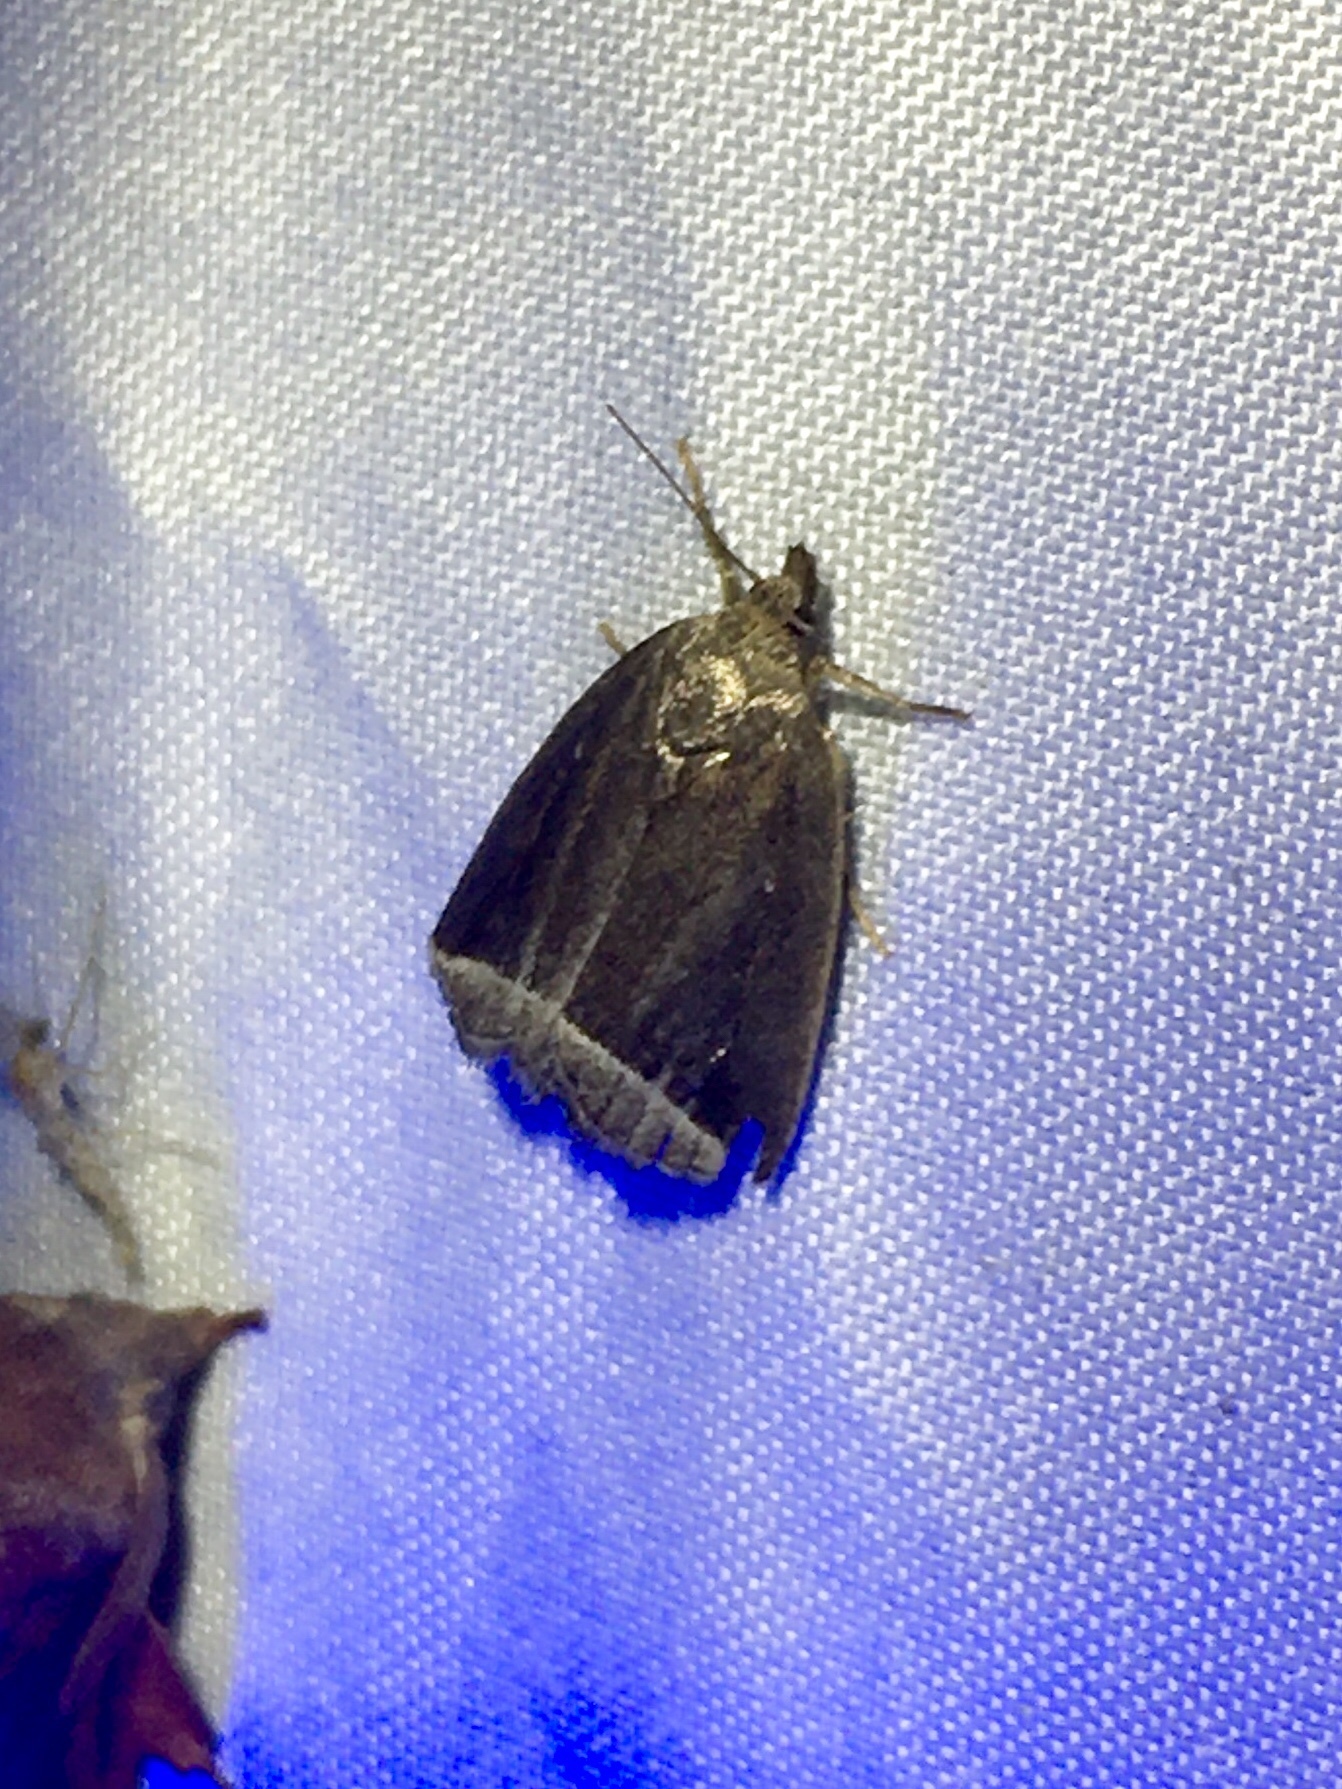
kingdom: Animalia
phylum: Arthropoda
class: Insecta
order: Lepidoptera
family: Erebidae
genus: Capis
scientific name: Capis curvata
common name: Curved halter moth
